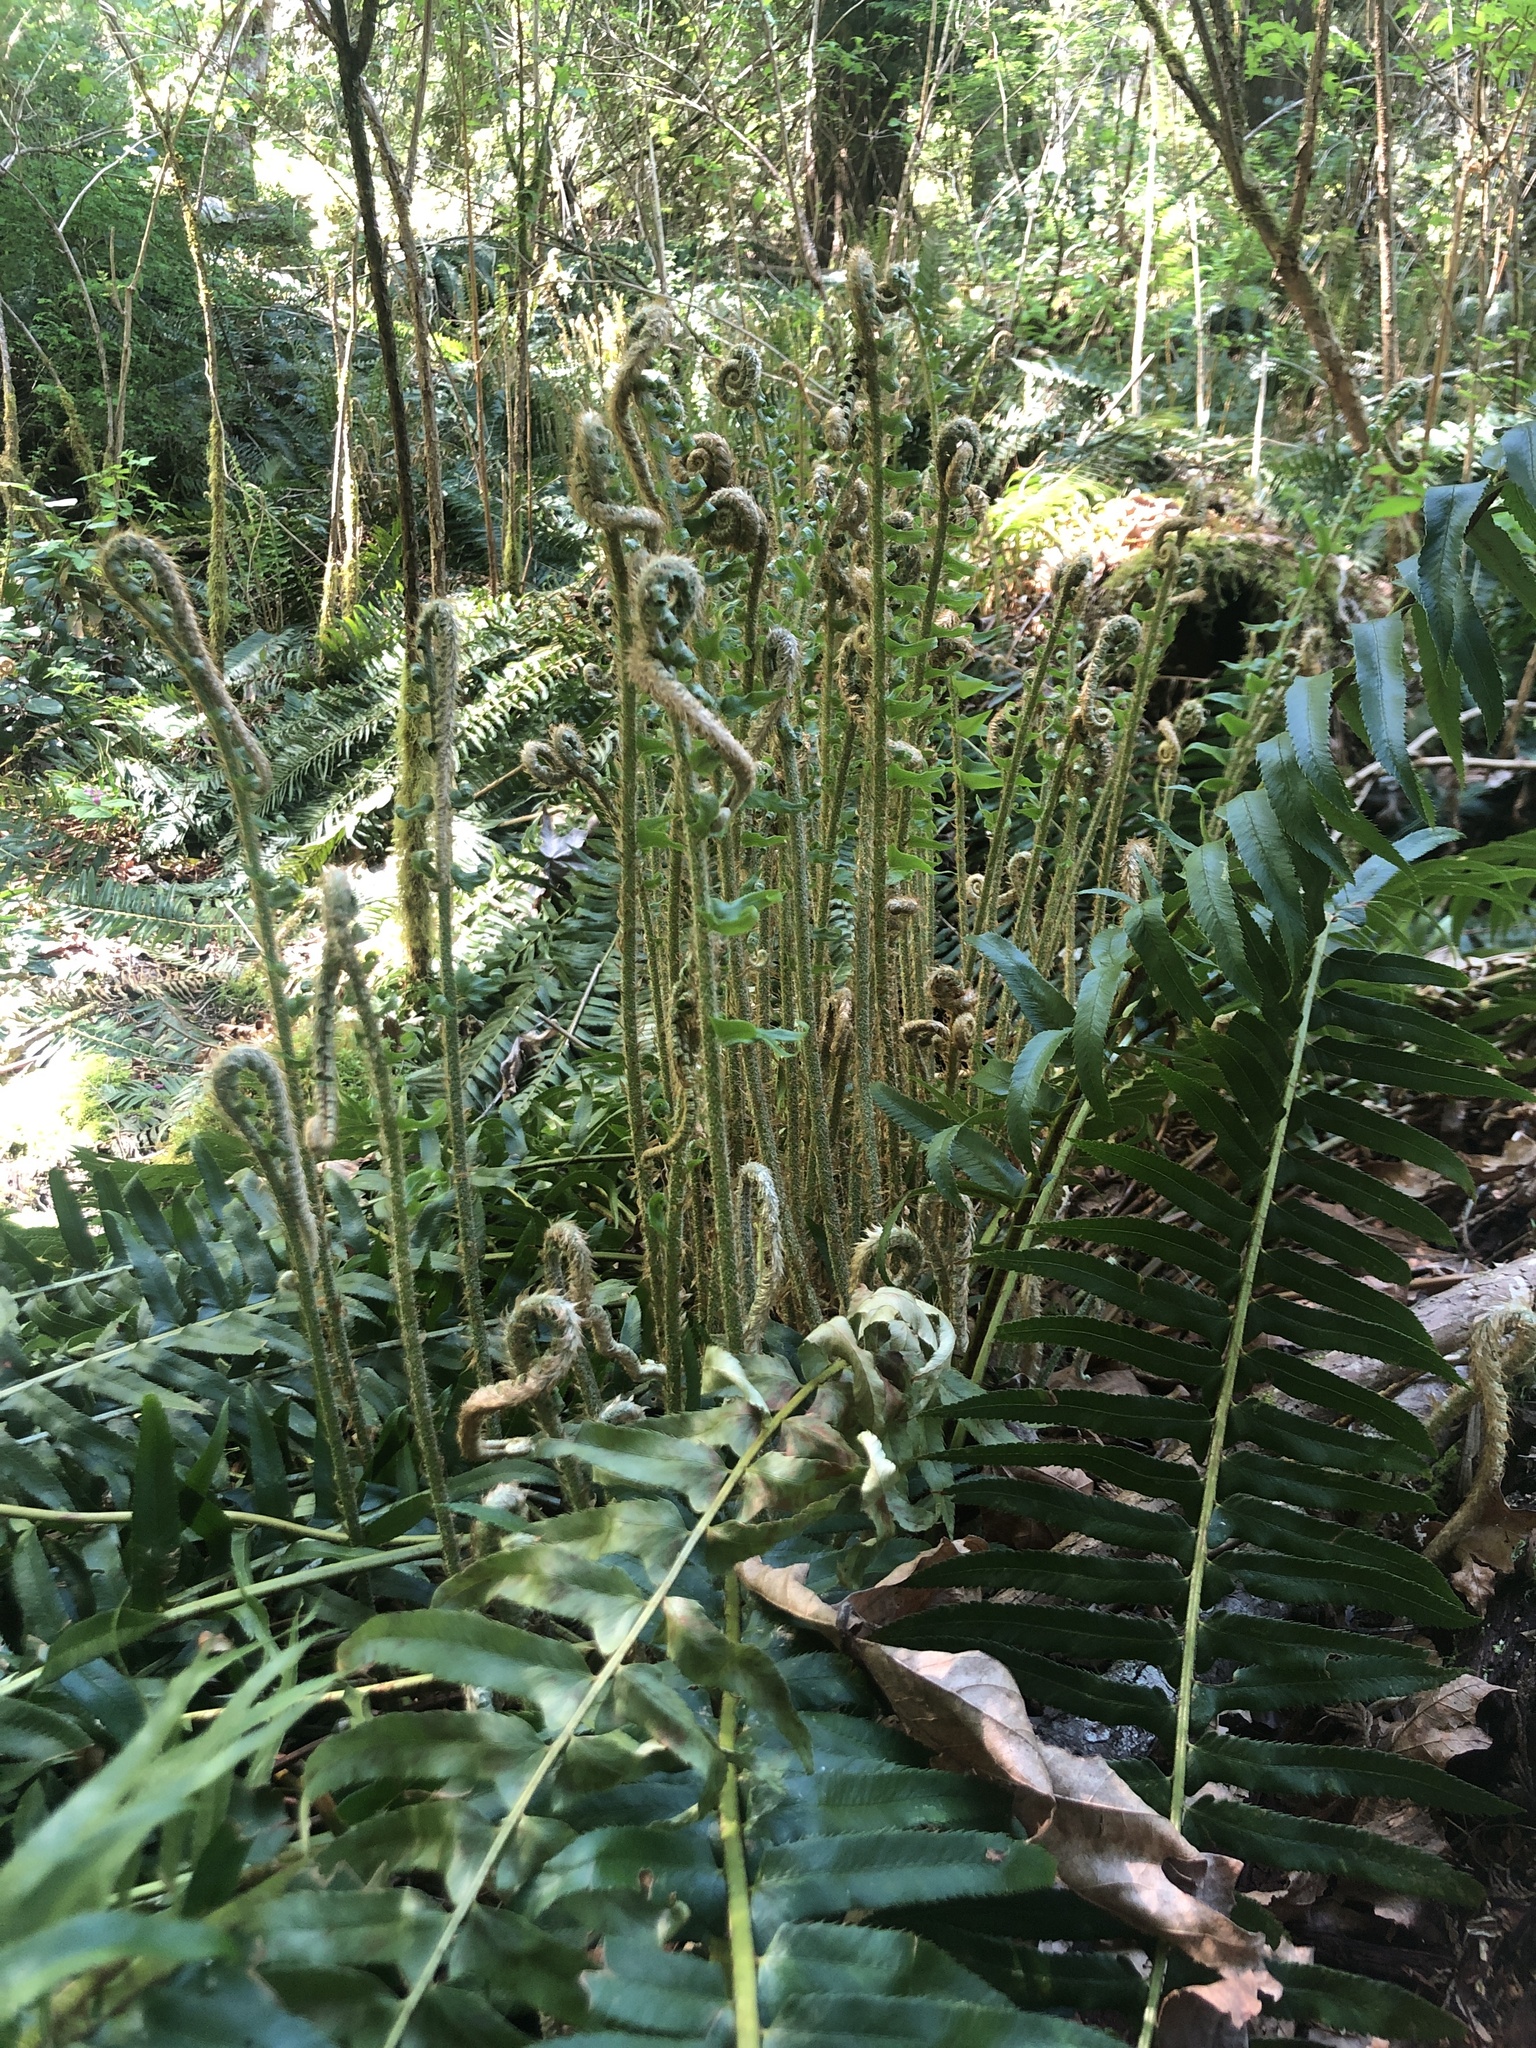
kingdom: Plantae
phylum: Tracheophyta
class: Polypodiopsida
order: Polypodiales
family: Dryopteridaceae
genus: Polystichum
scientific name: Polystichum munitum
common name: Western sword-fern
